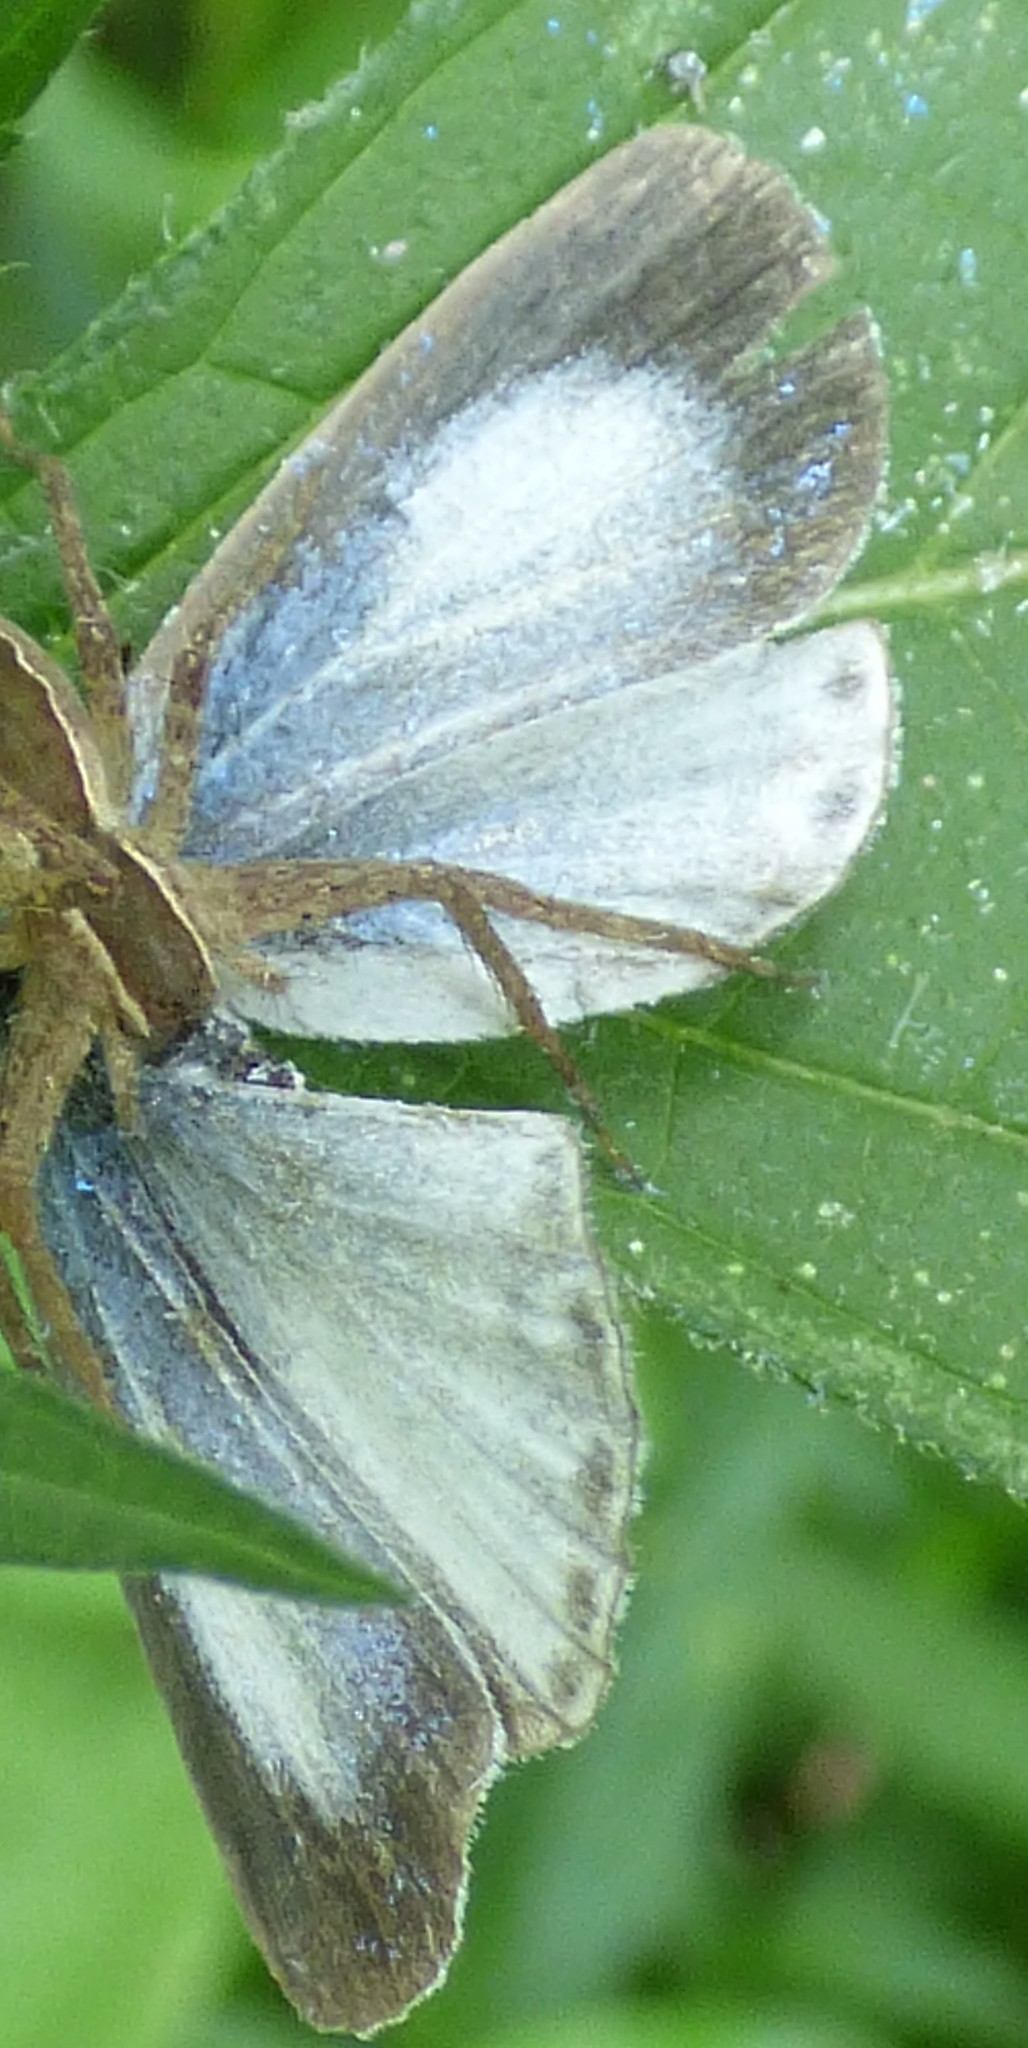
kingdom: Animalia
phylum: Arthropoda
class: Insecta
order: Lepidoptera
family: Lycaenidae
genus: Cyaniris
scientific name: Cyaniris neglecta
